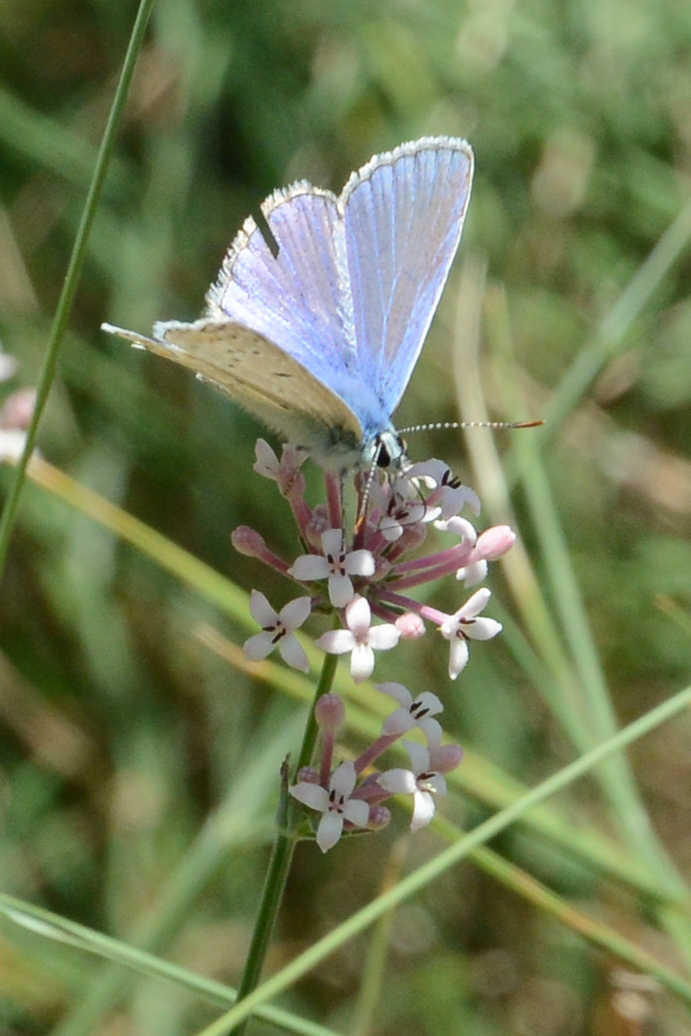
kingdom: Animalia
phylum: Arthropoda
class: Insecta
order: Lepidoptera
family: Lycaenidae
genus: Polyommatus
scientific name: Polyommatus icarus
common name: Common blue
